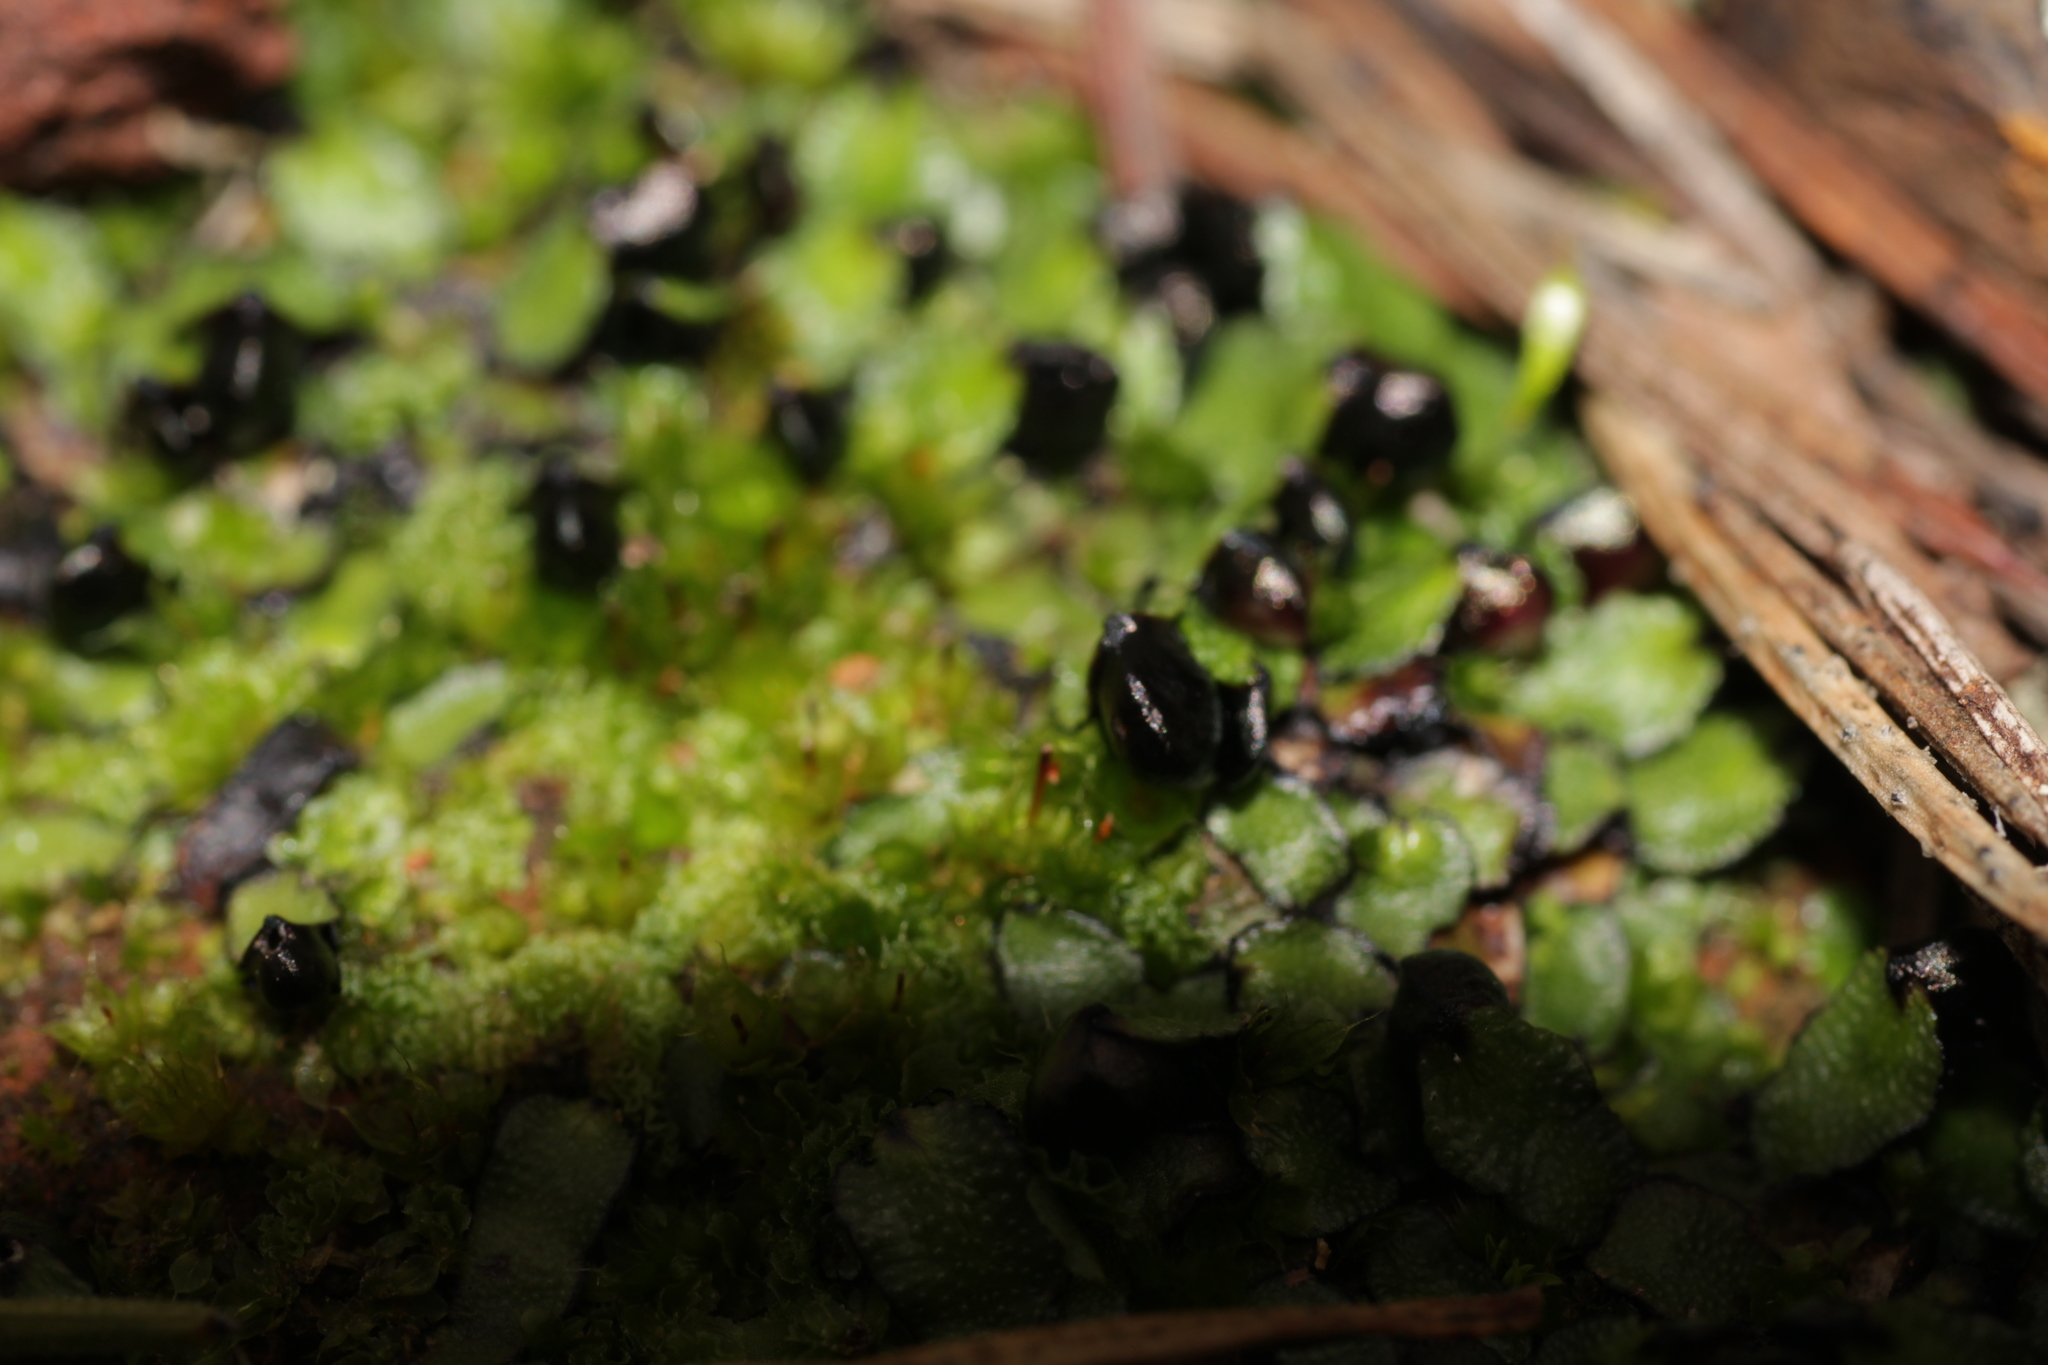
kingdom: Plantae
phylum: Marchantiophyta
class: Marchantiopsida
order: Marchantiales
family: Targioniaceae
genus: Targionia
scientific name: Targionia hypophylla
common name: Orobus-seed liverwort
